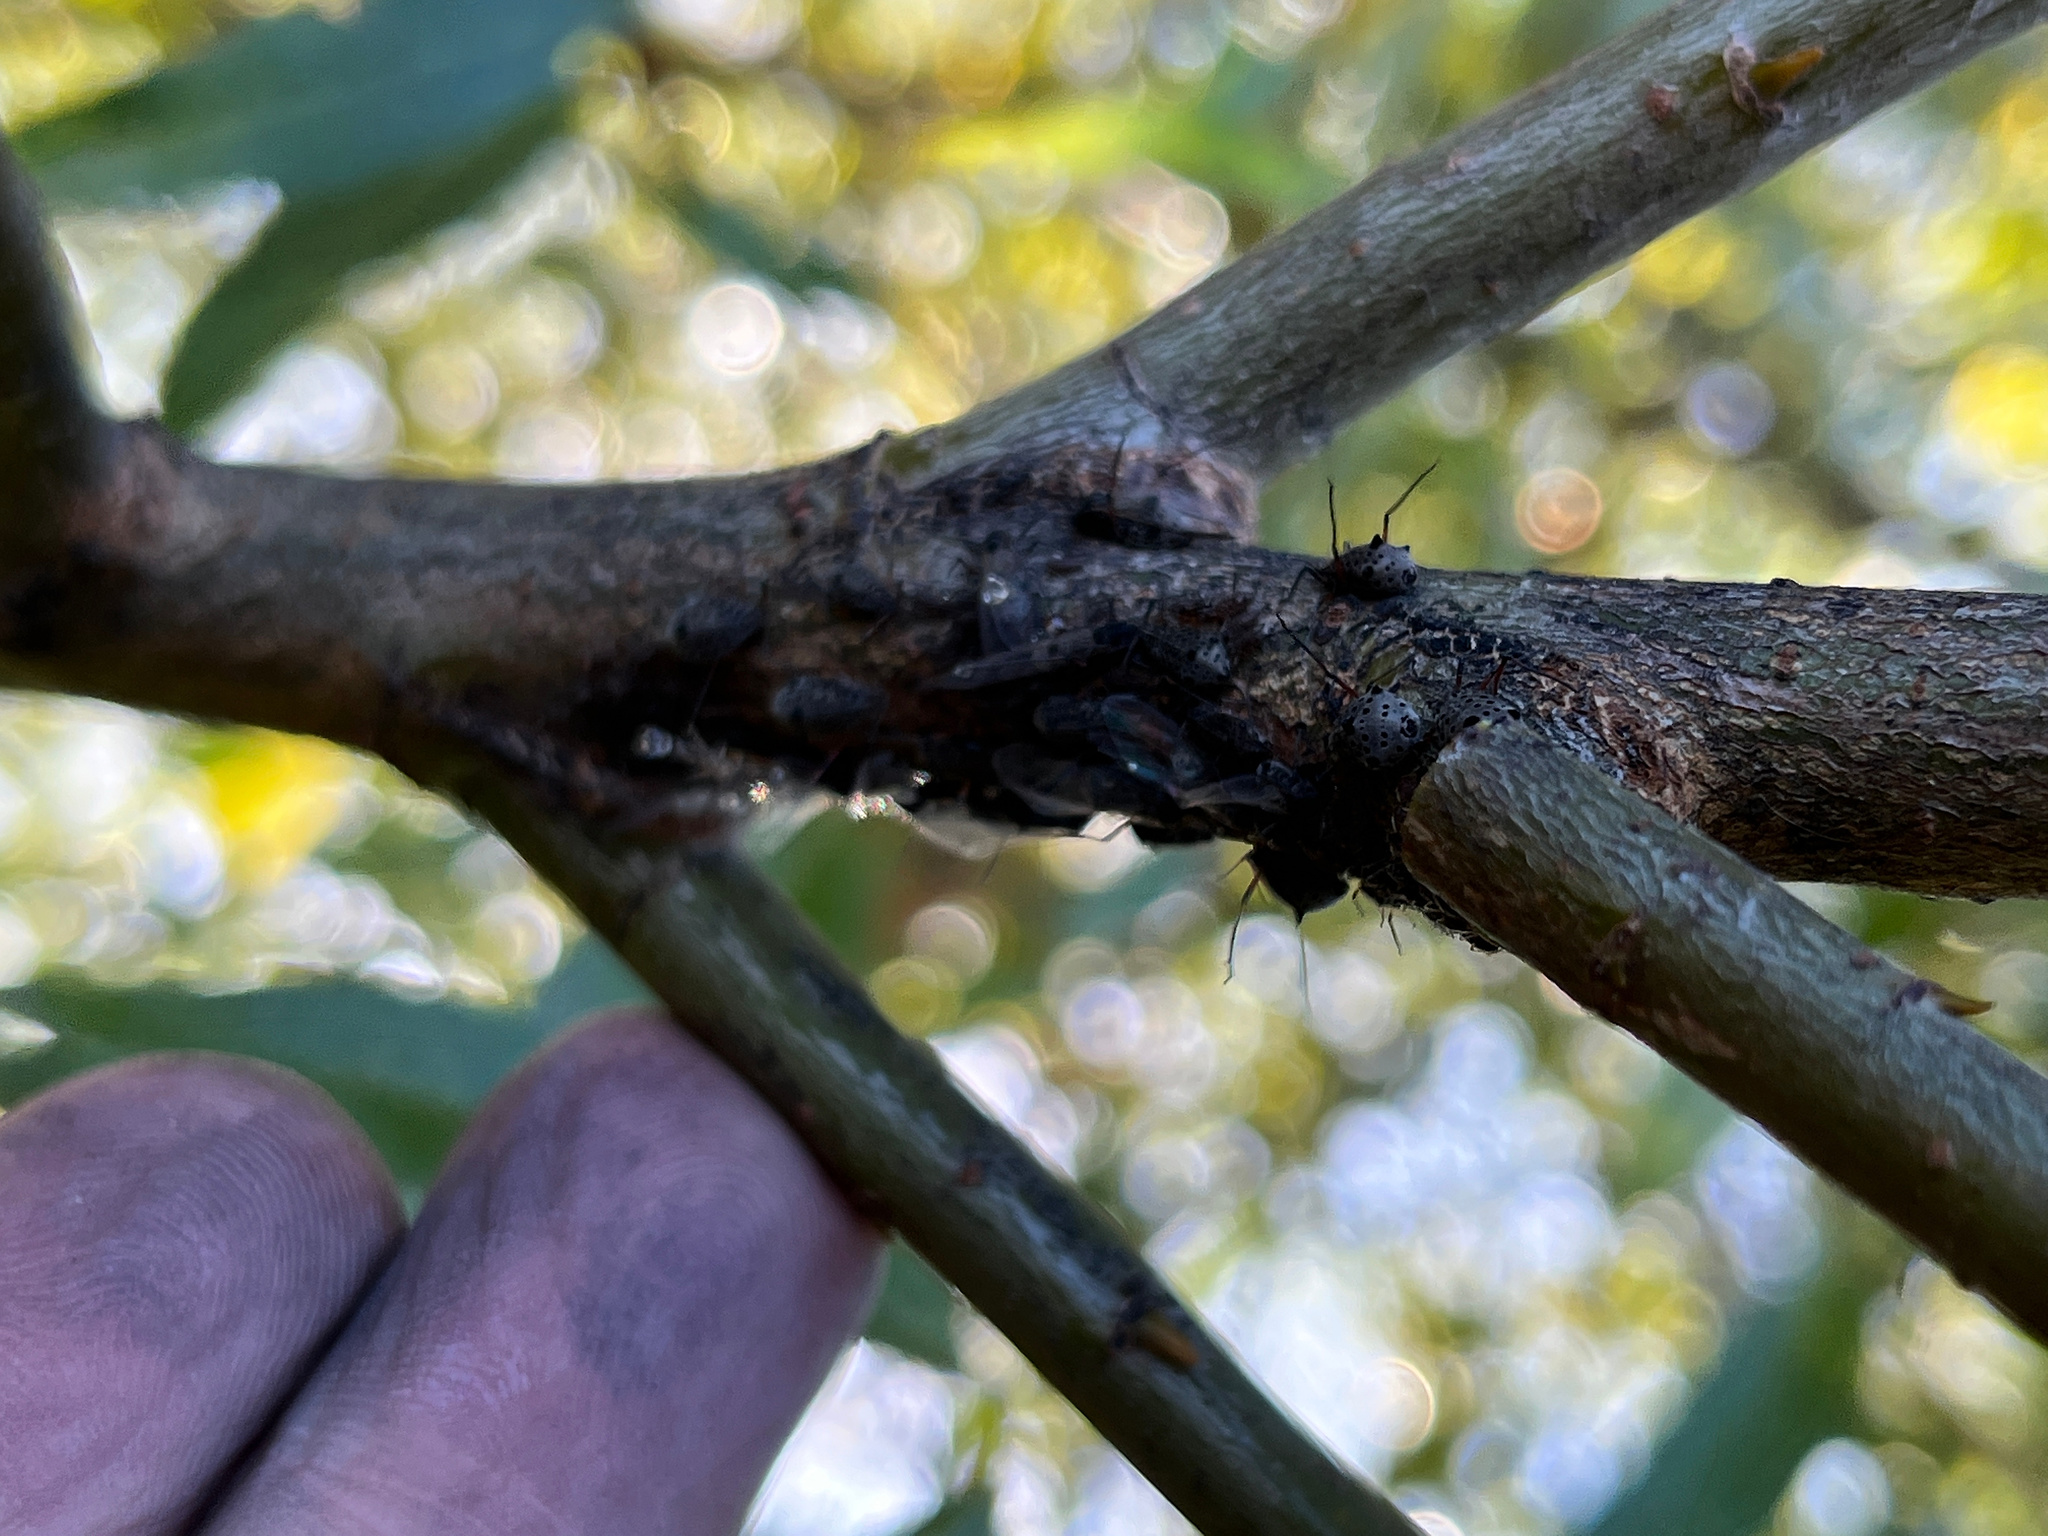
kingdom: Animalia
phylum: Arthropoda
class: Insecta
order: Hemiptera
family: Aphididae
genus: Tuberolachnus
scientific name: Tuberolachnus salignus
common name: Giant willow aphid
